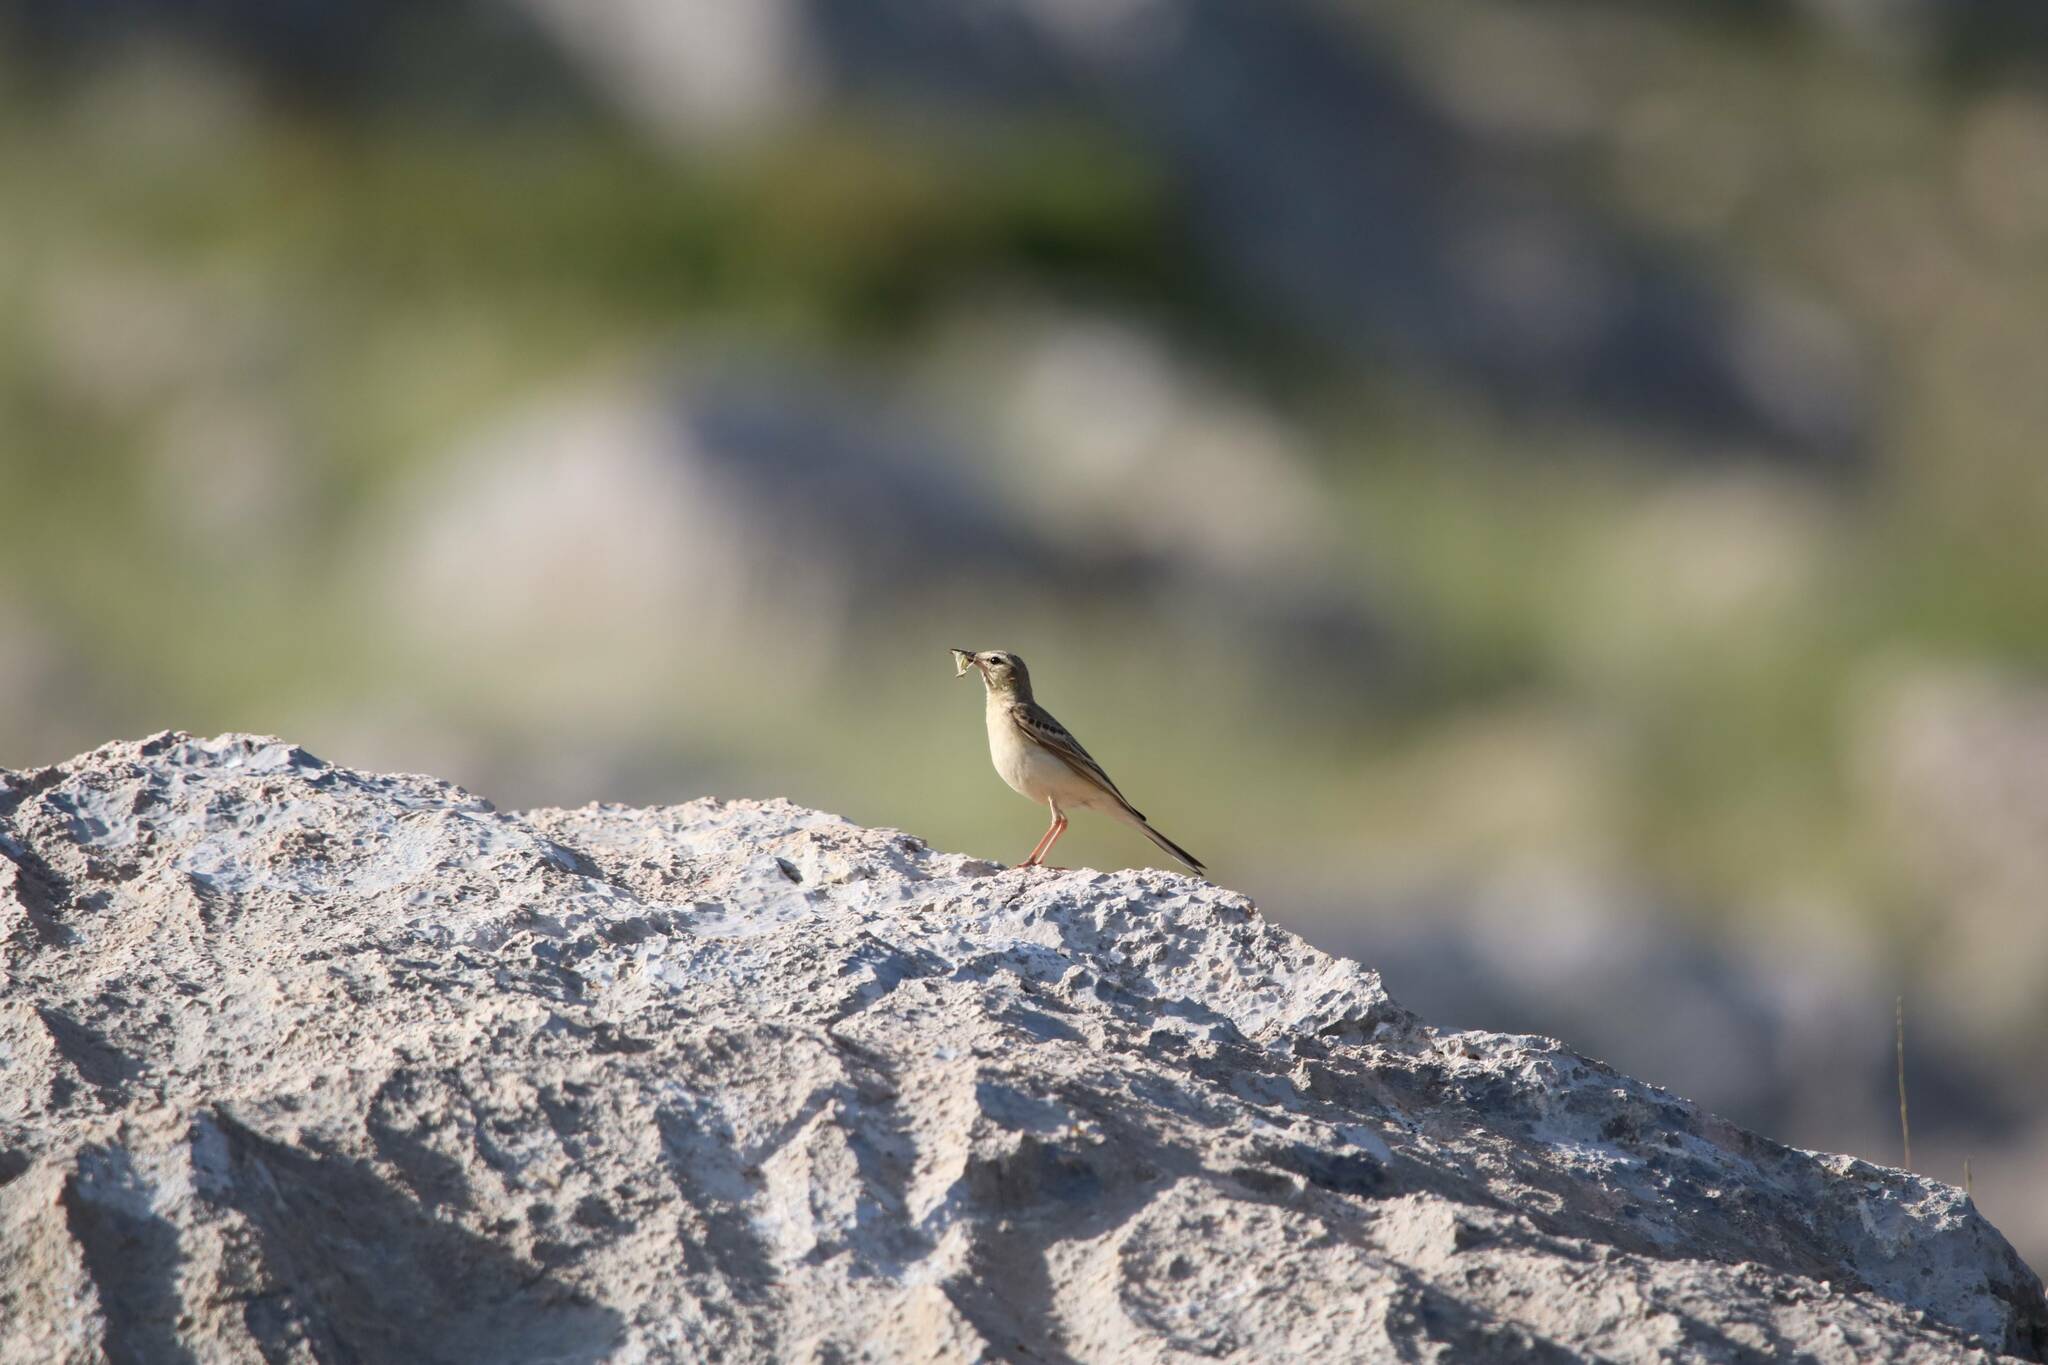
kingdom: Animalia
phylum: Chordata
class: Aves
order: Passeriformes
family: Motacillidae
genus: Anthus
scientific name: Anthus campestris
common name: Tawny pipit
